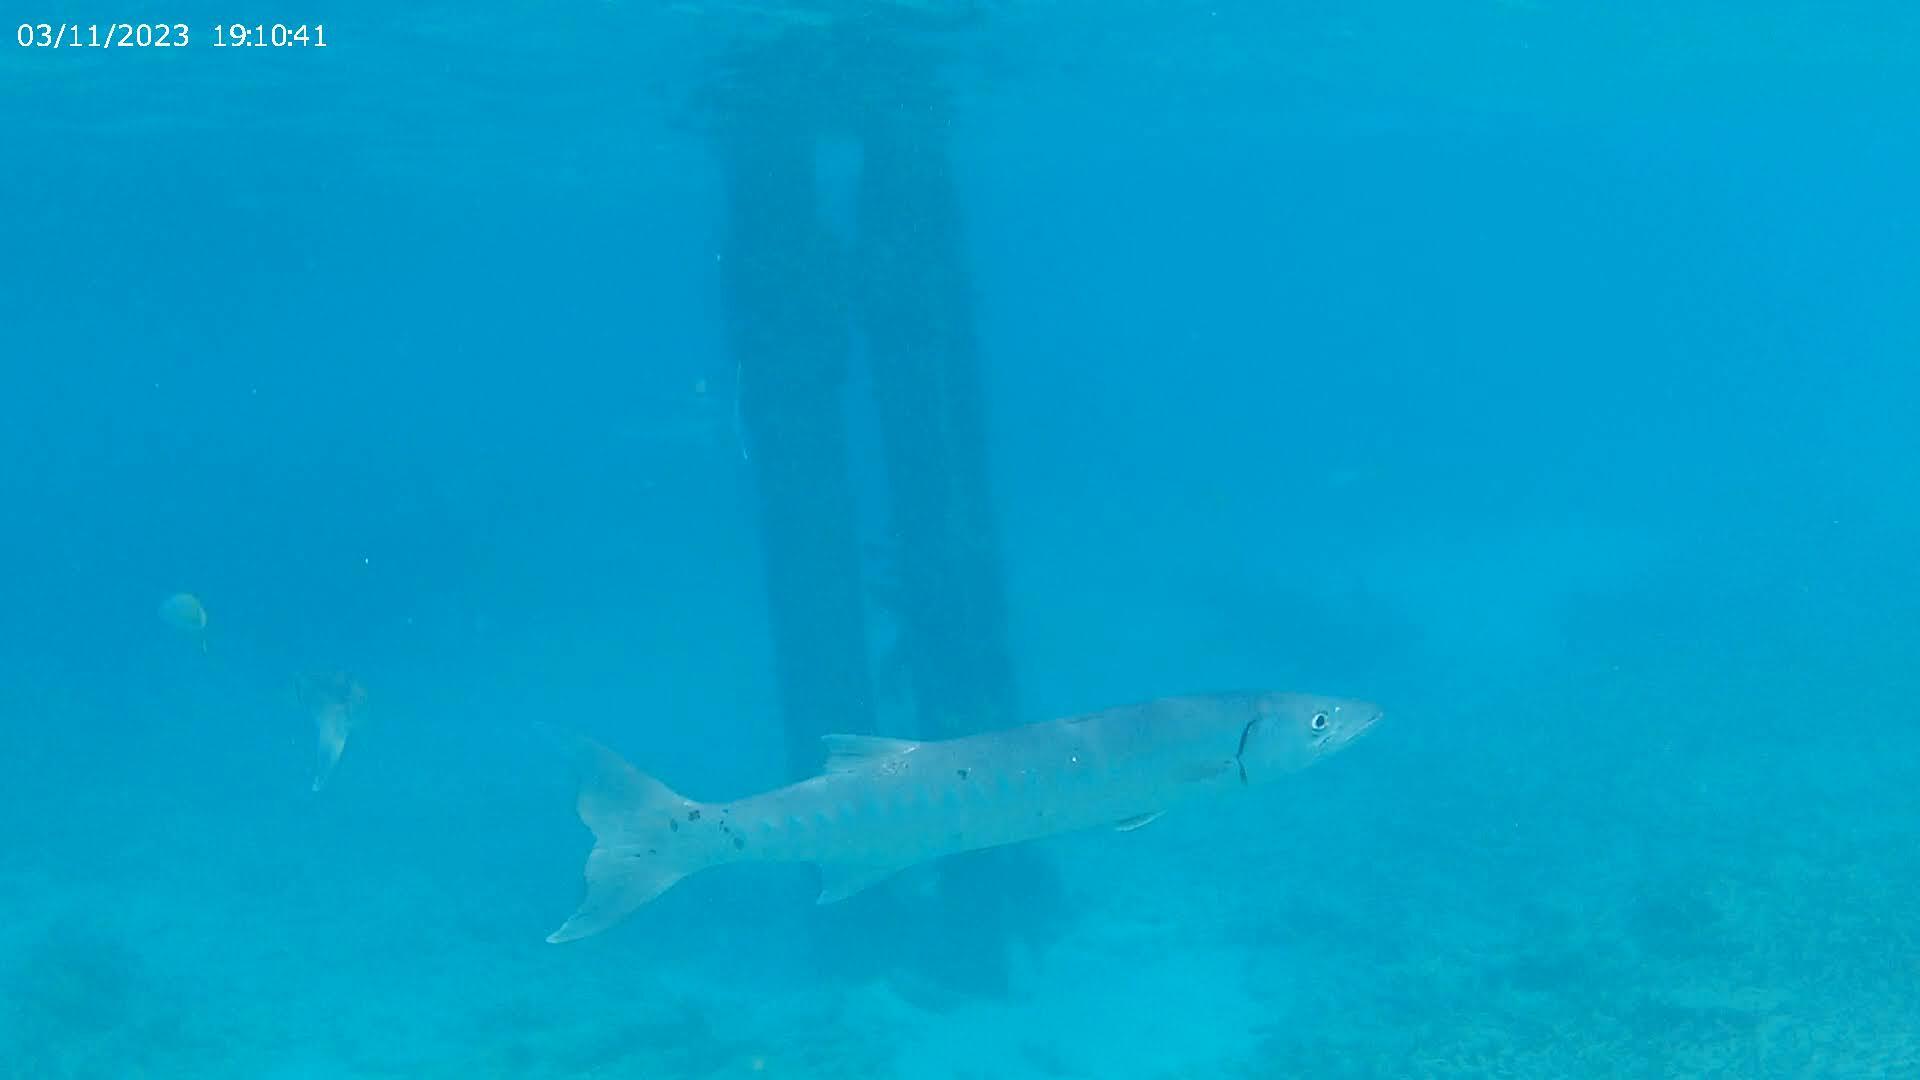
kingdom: Animalia
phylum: Chordata
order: Perciformes
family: Sphyraenidae
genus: Sphyraena
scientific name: Sphyraena barracuda
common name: Great barracuda
